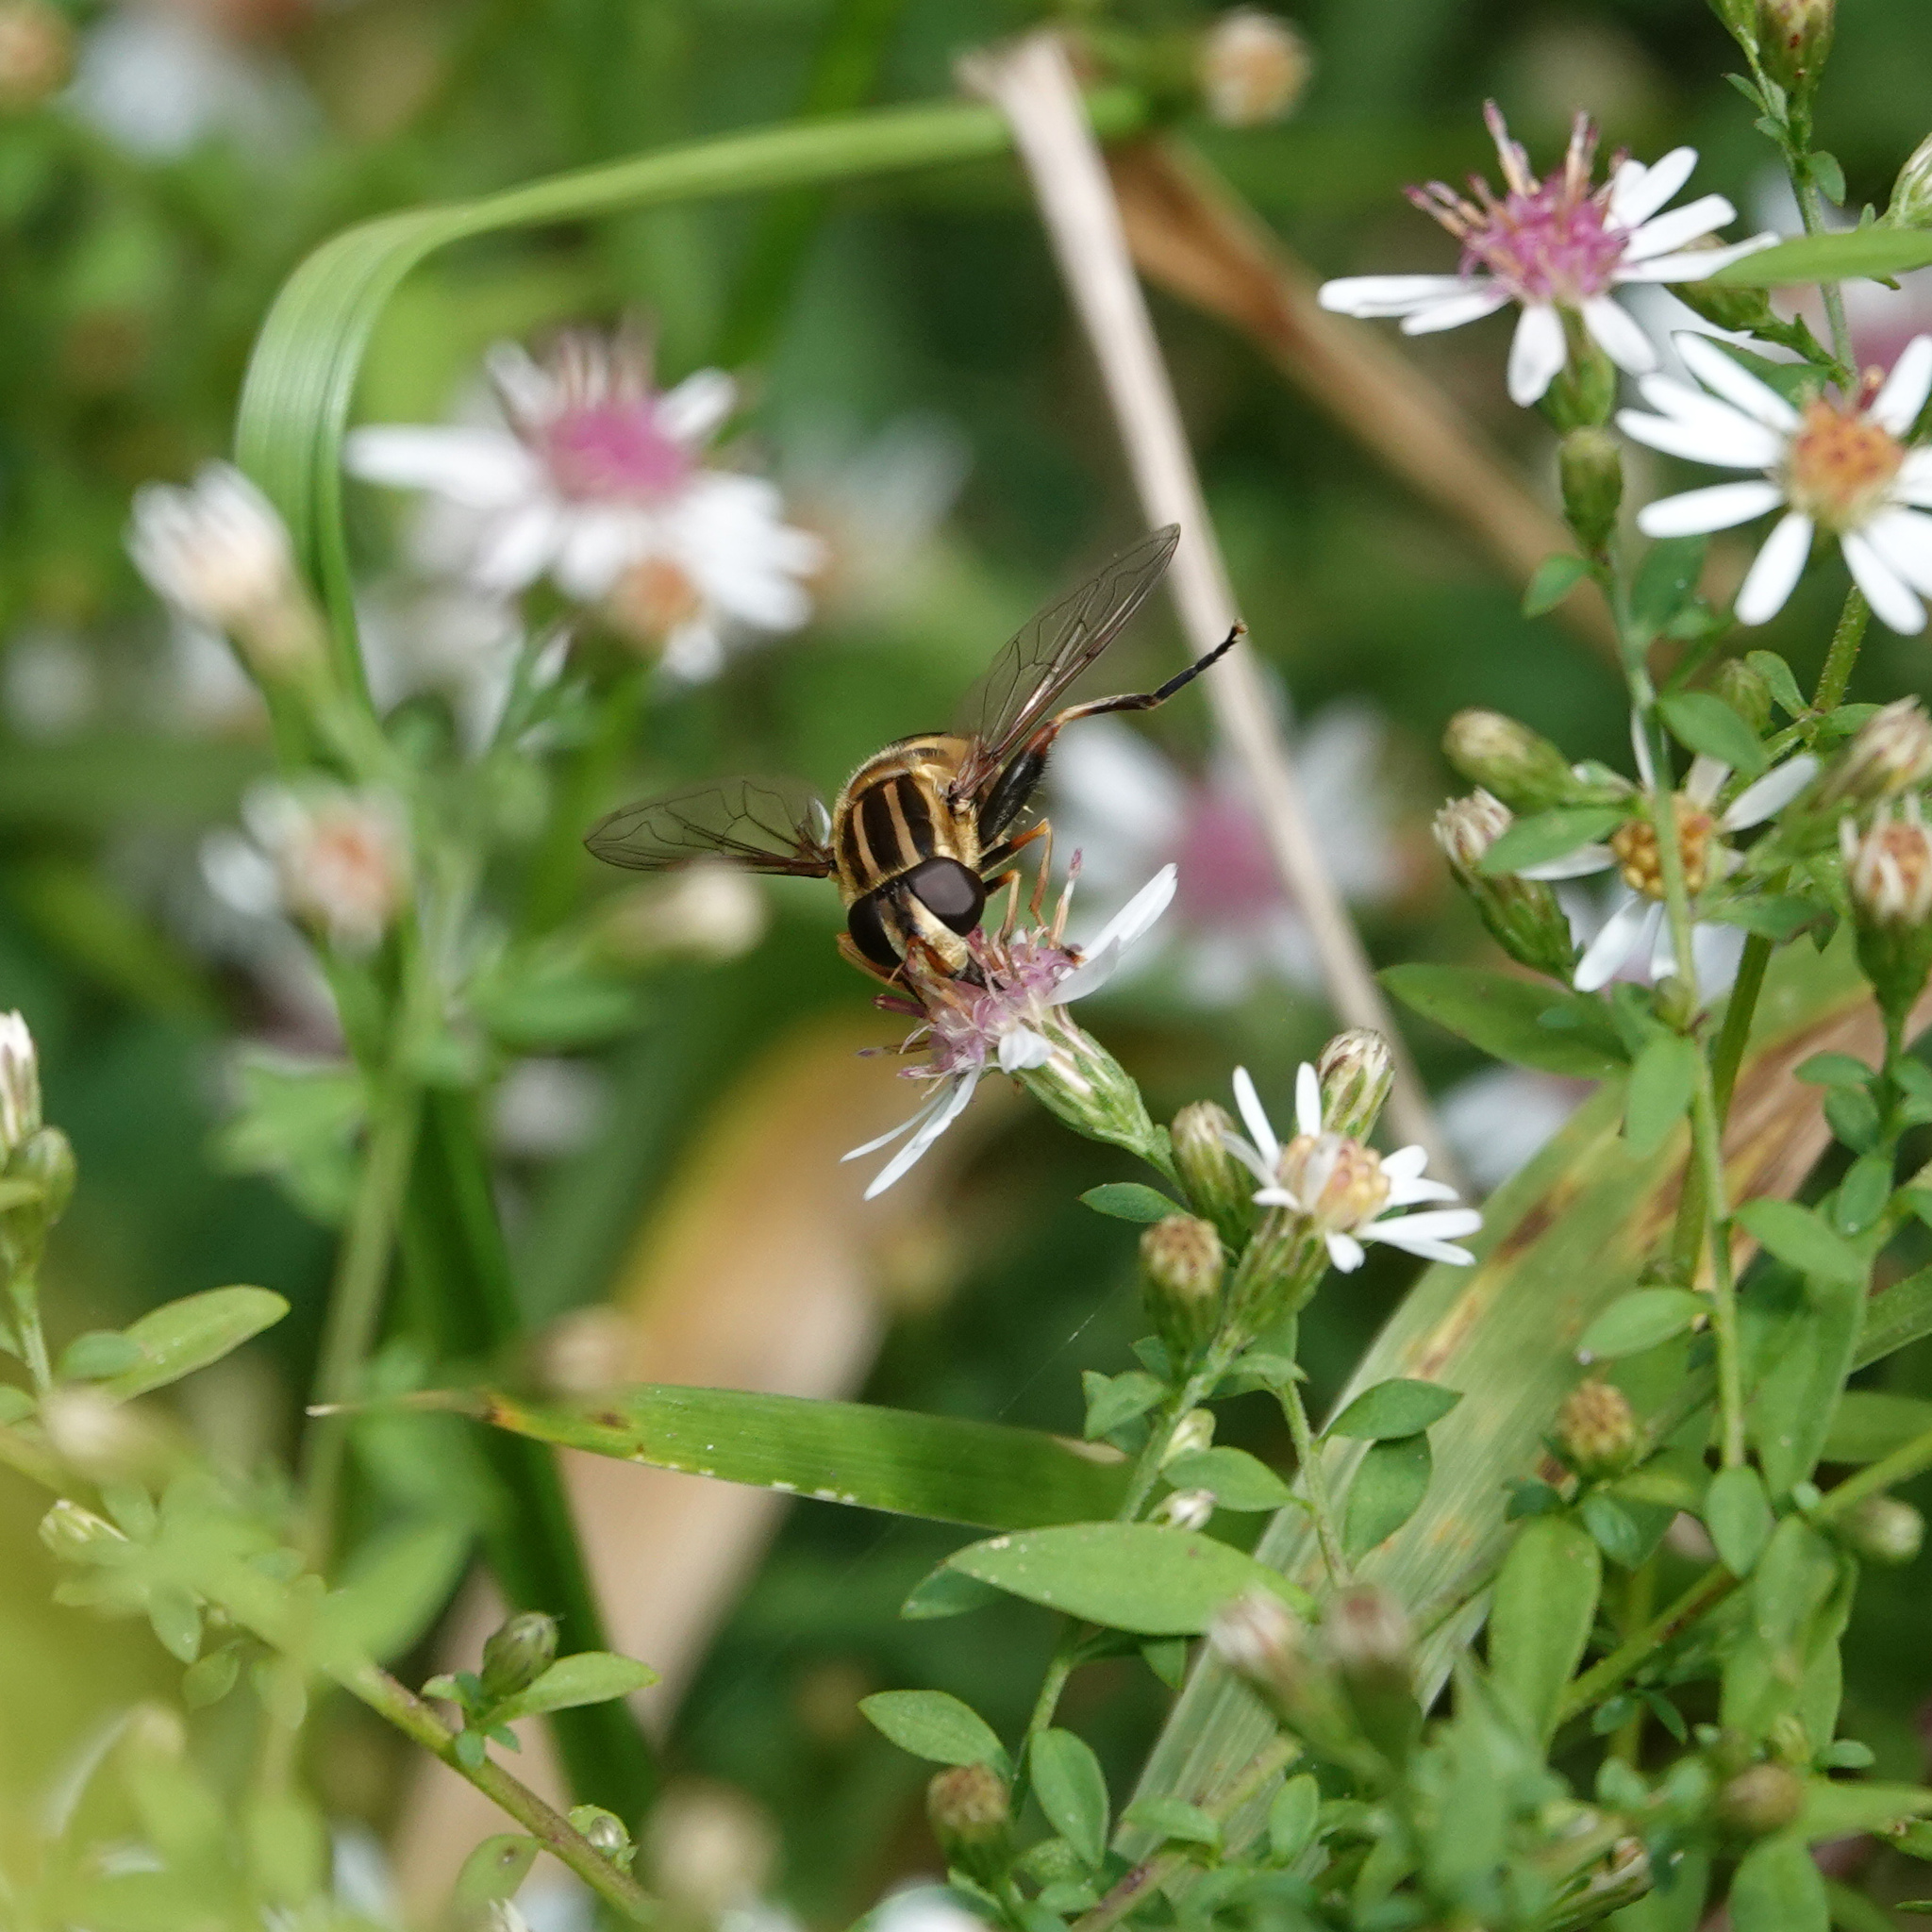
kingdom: Animalia
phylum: Arthropoda
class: Insecta
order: Diptera
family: Syrphidae
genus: Helophilus
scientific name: Helophilus fasciatus
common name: Narrow-headed marsh fly
